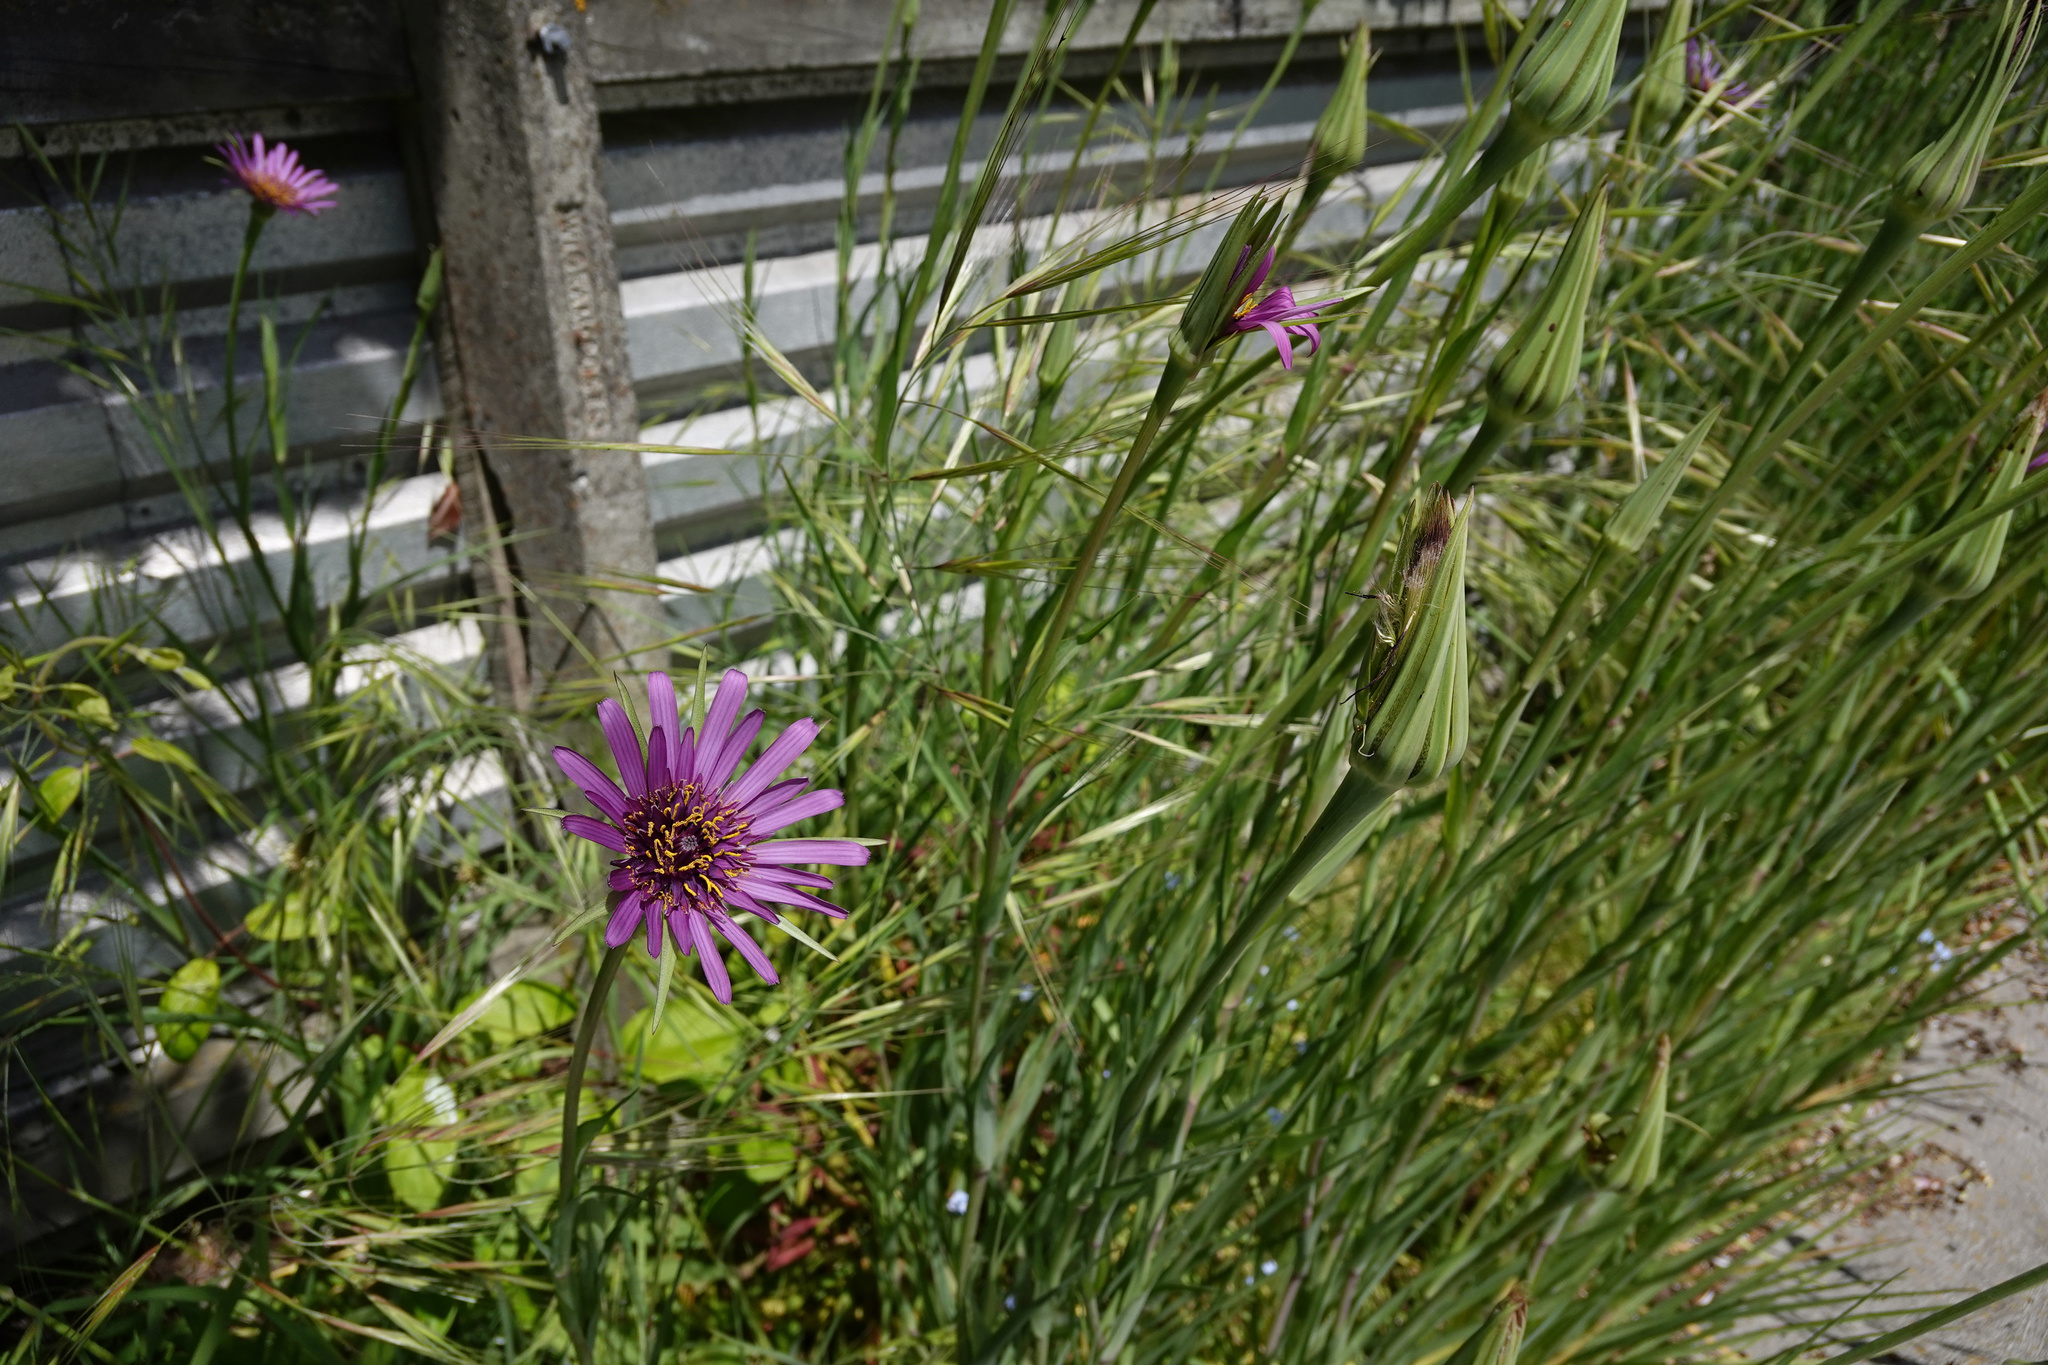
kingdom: Plantae
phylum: Tracheophyta
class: Magnoliopsida
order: Asterales
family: Asteraceae
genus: Tragopogon
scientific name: Tragopogon porrifolius
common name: Salsify
